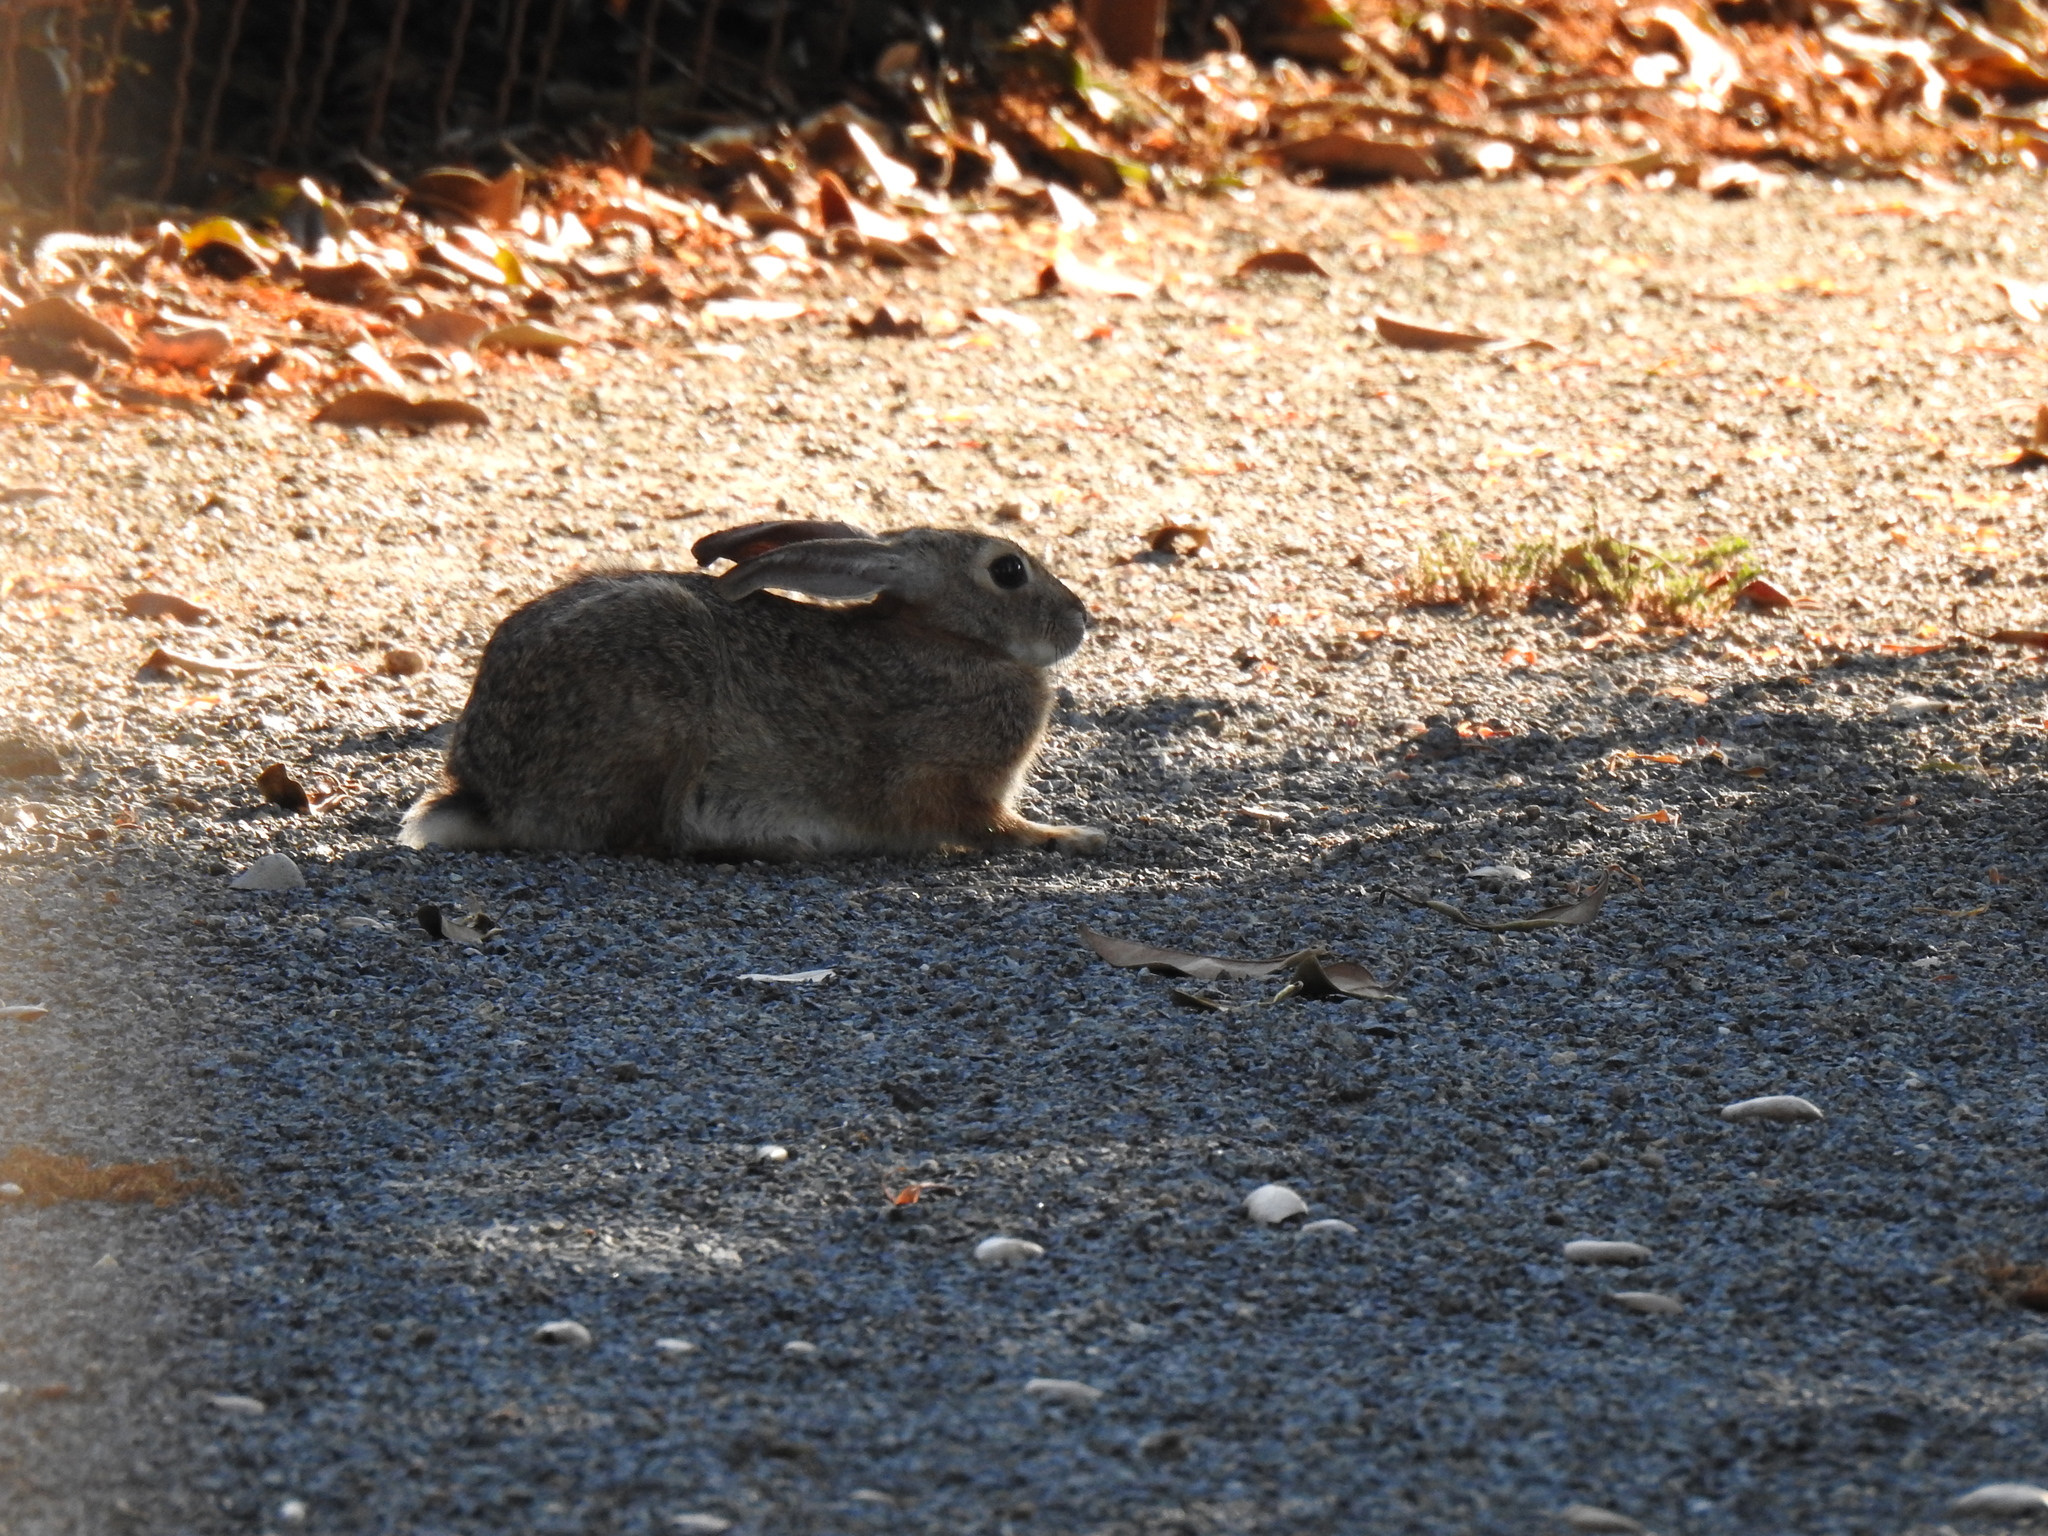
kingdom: Animalia
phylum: Chordata
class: Mammalia
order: Lagomorpha
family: Leporidae
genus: Sylvilagus
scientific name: Sylvilagus audubonii
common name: Desert cottontail
